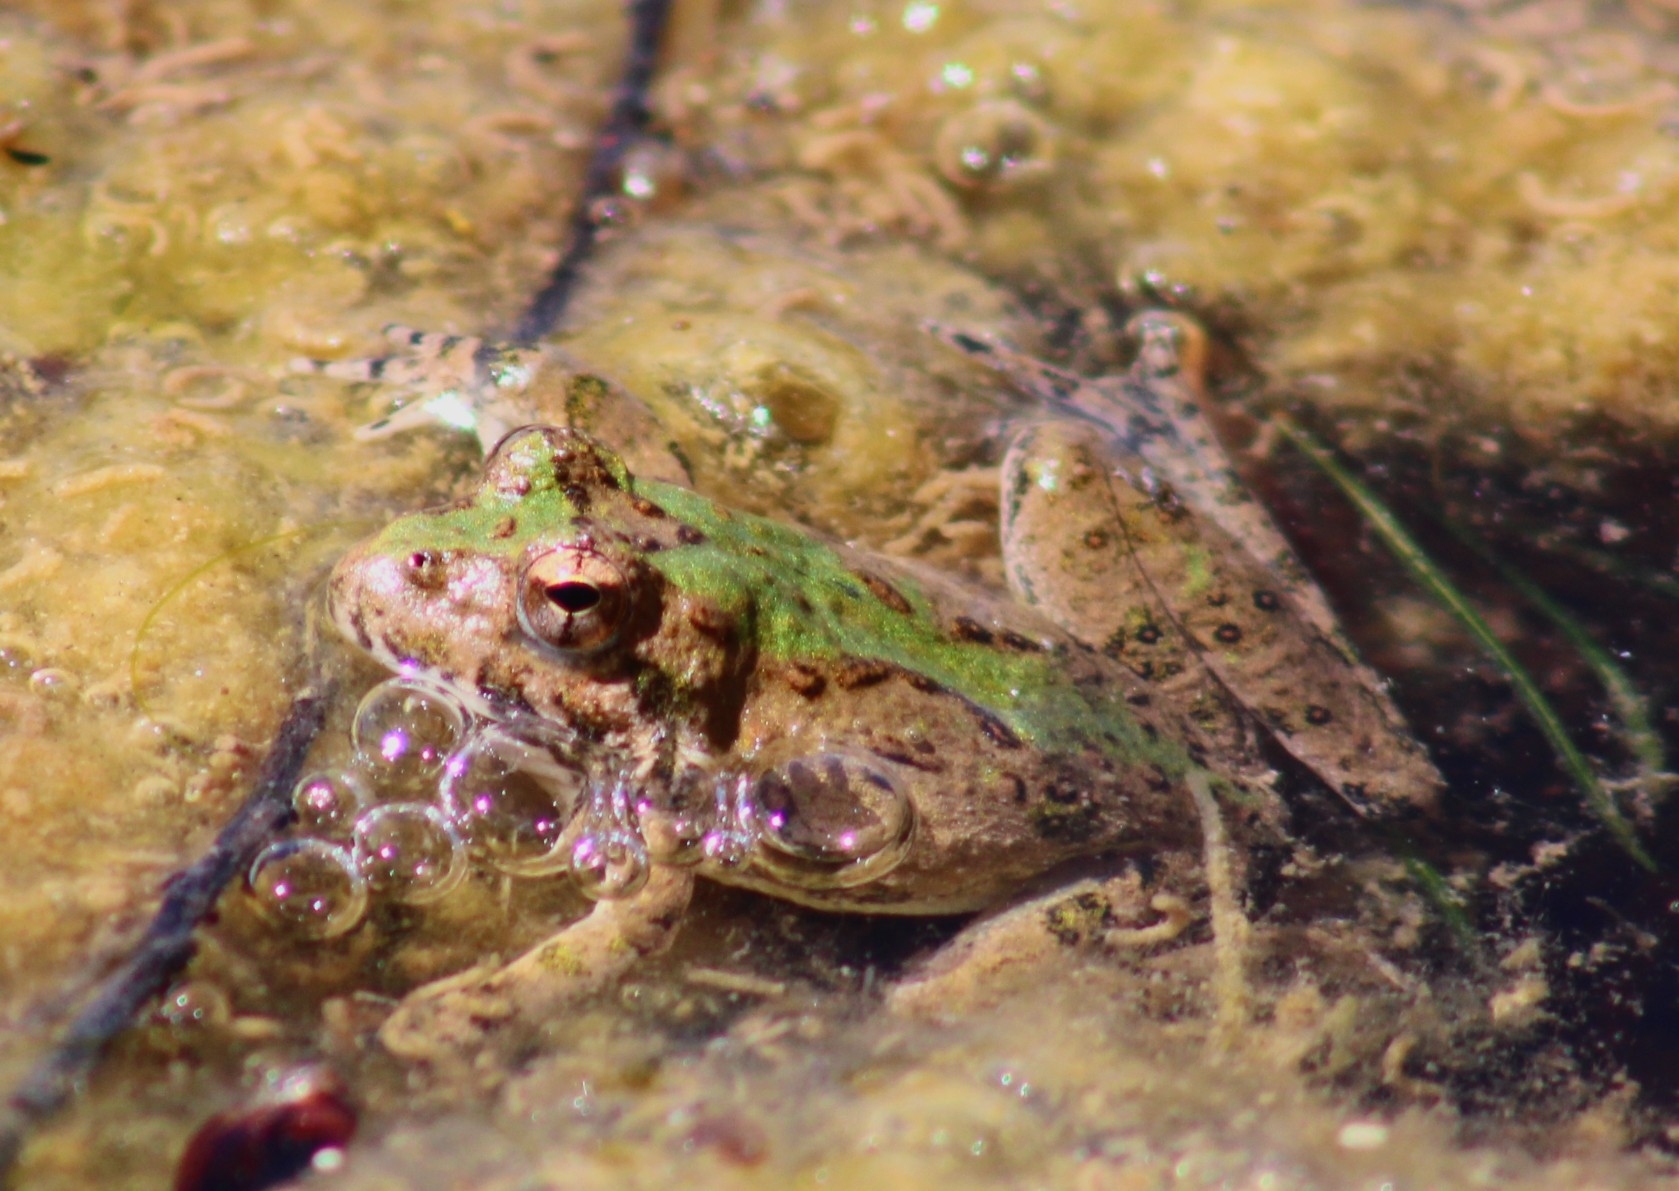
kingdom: Animalia
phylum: Chordata
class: Amphibia
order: Anura
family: Hylidae
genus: Acris
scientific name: Acris blanchardi
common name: Blanchard's cricket frog
